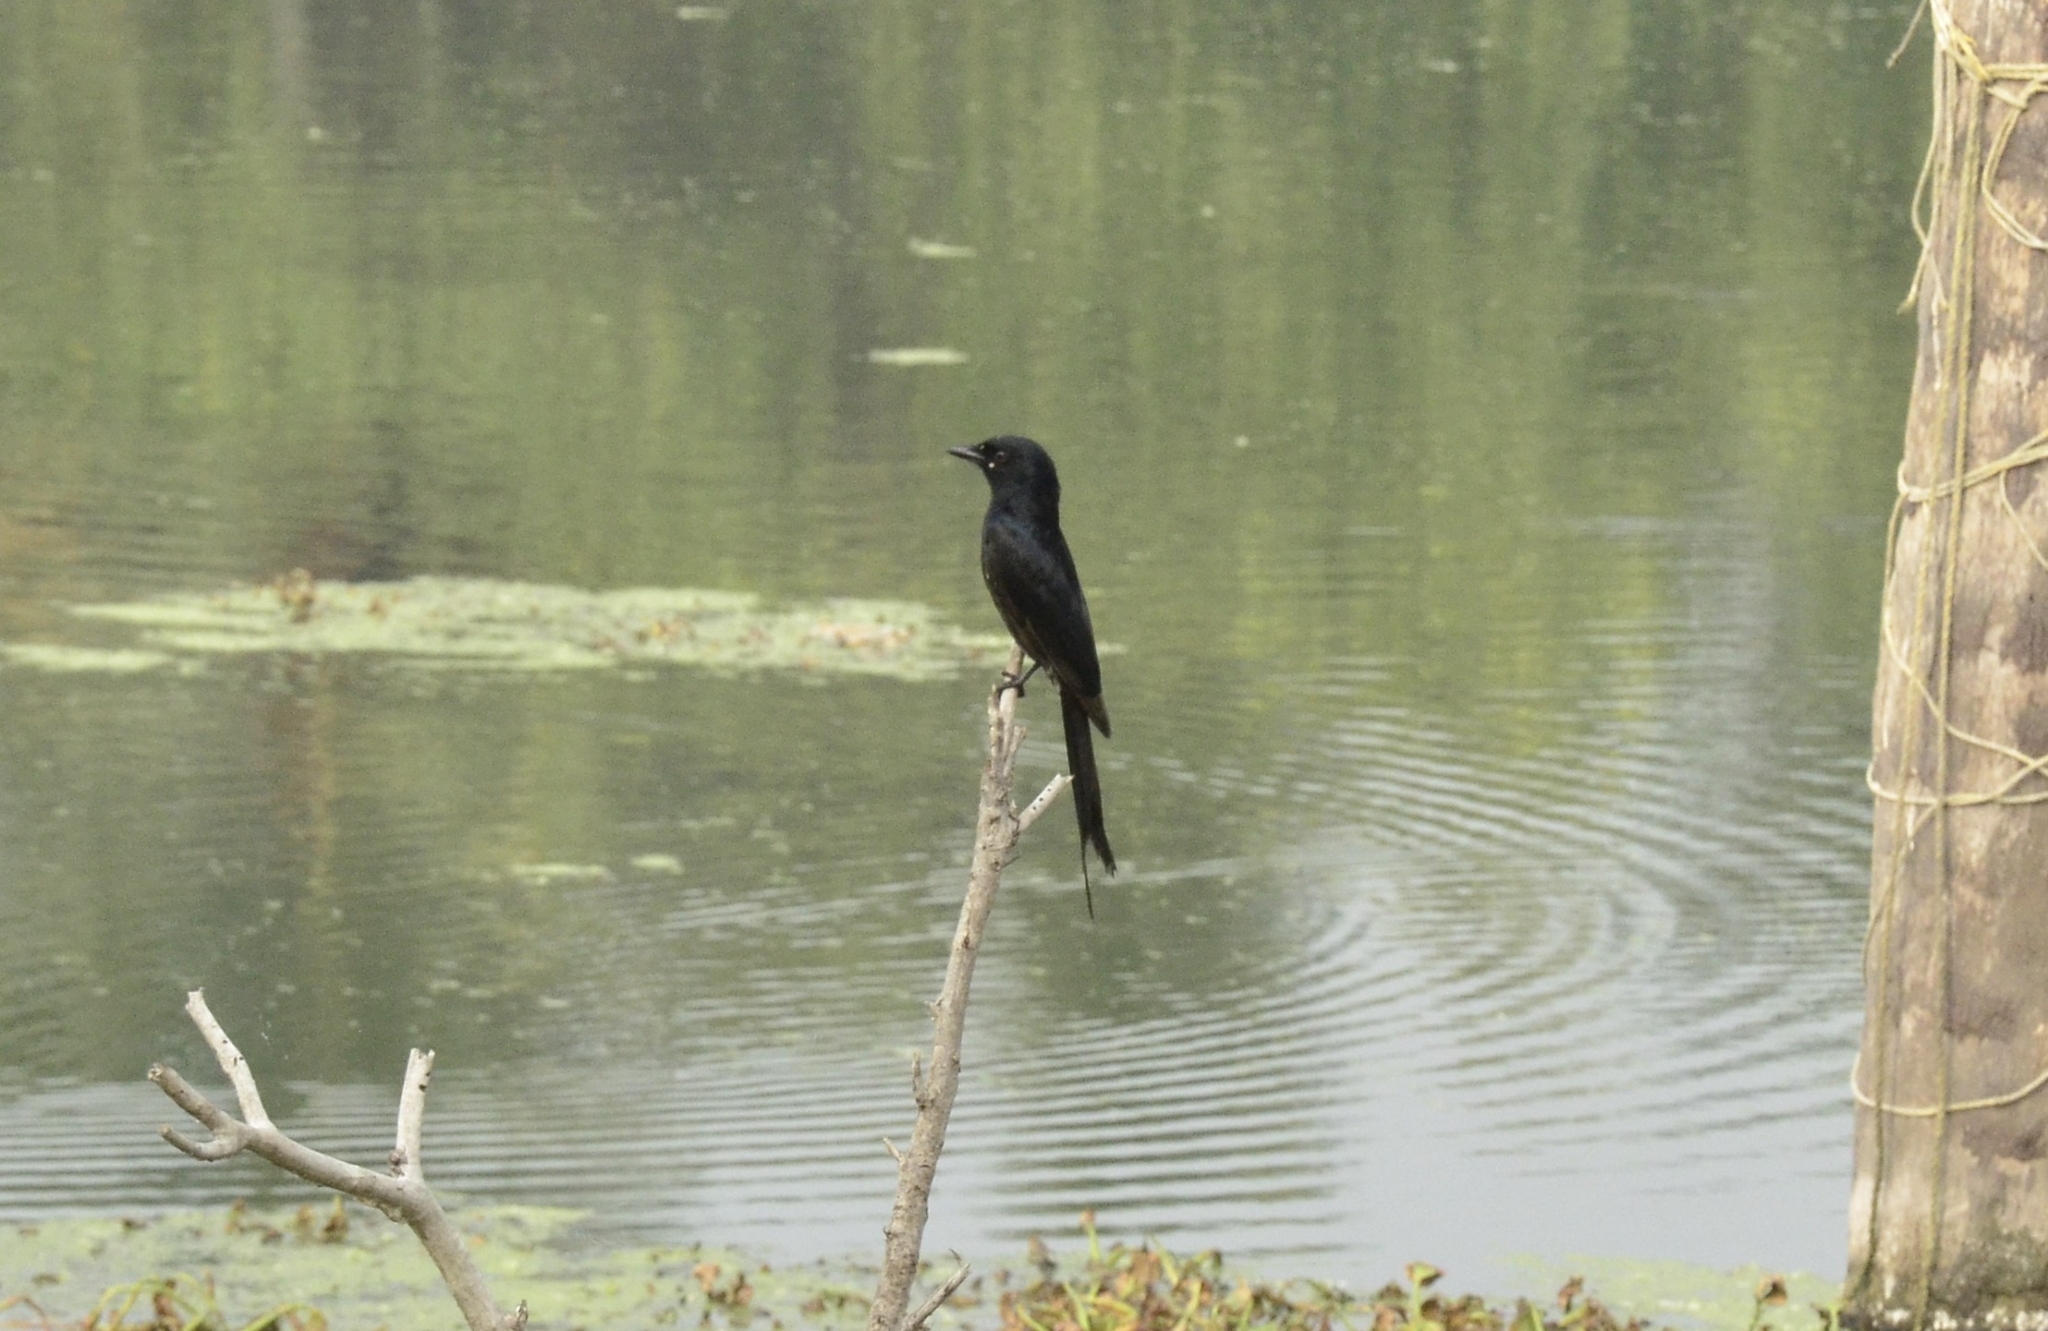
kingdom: Animalia
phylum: Chordata
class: Aves
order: Passeriformes
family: Dicruridae
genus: Dicrurus
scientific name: Dicrurus macrocercus
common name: Black drongo
